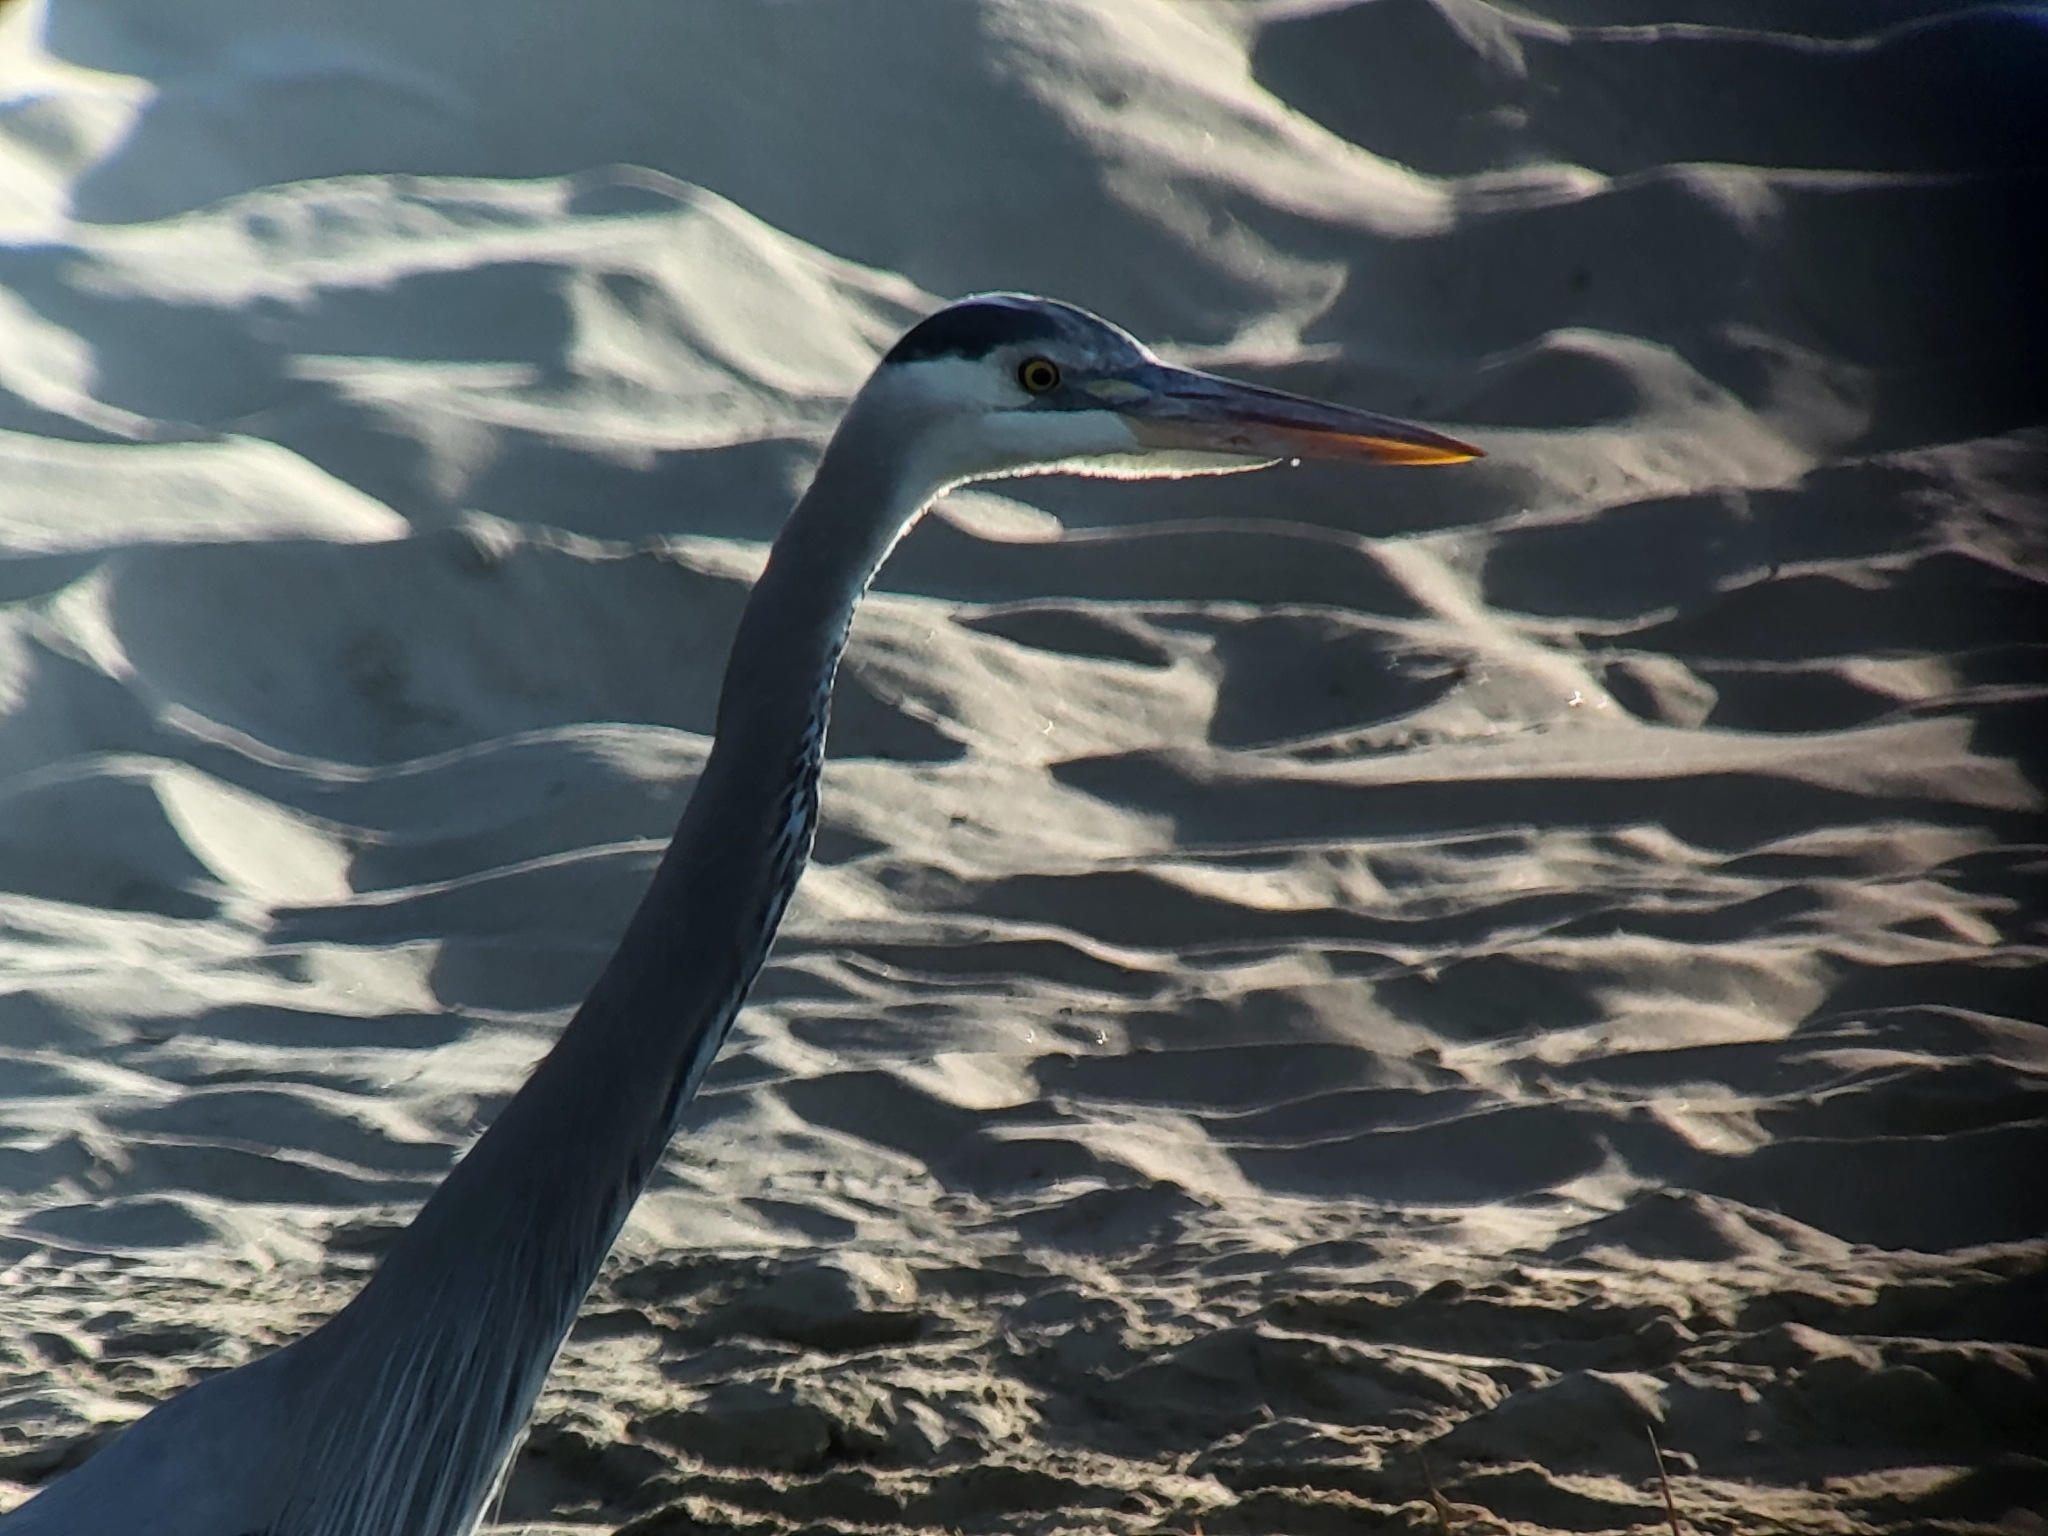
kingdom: Animalia
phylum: Chordata
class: Aves
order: Pelecaniformes
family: Ardeidae
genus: Ardea
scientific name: Ardea herodias
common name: Great blue heron
